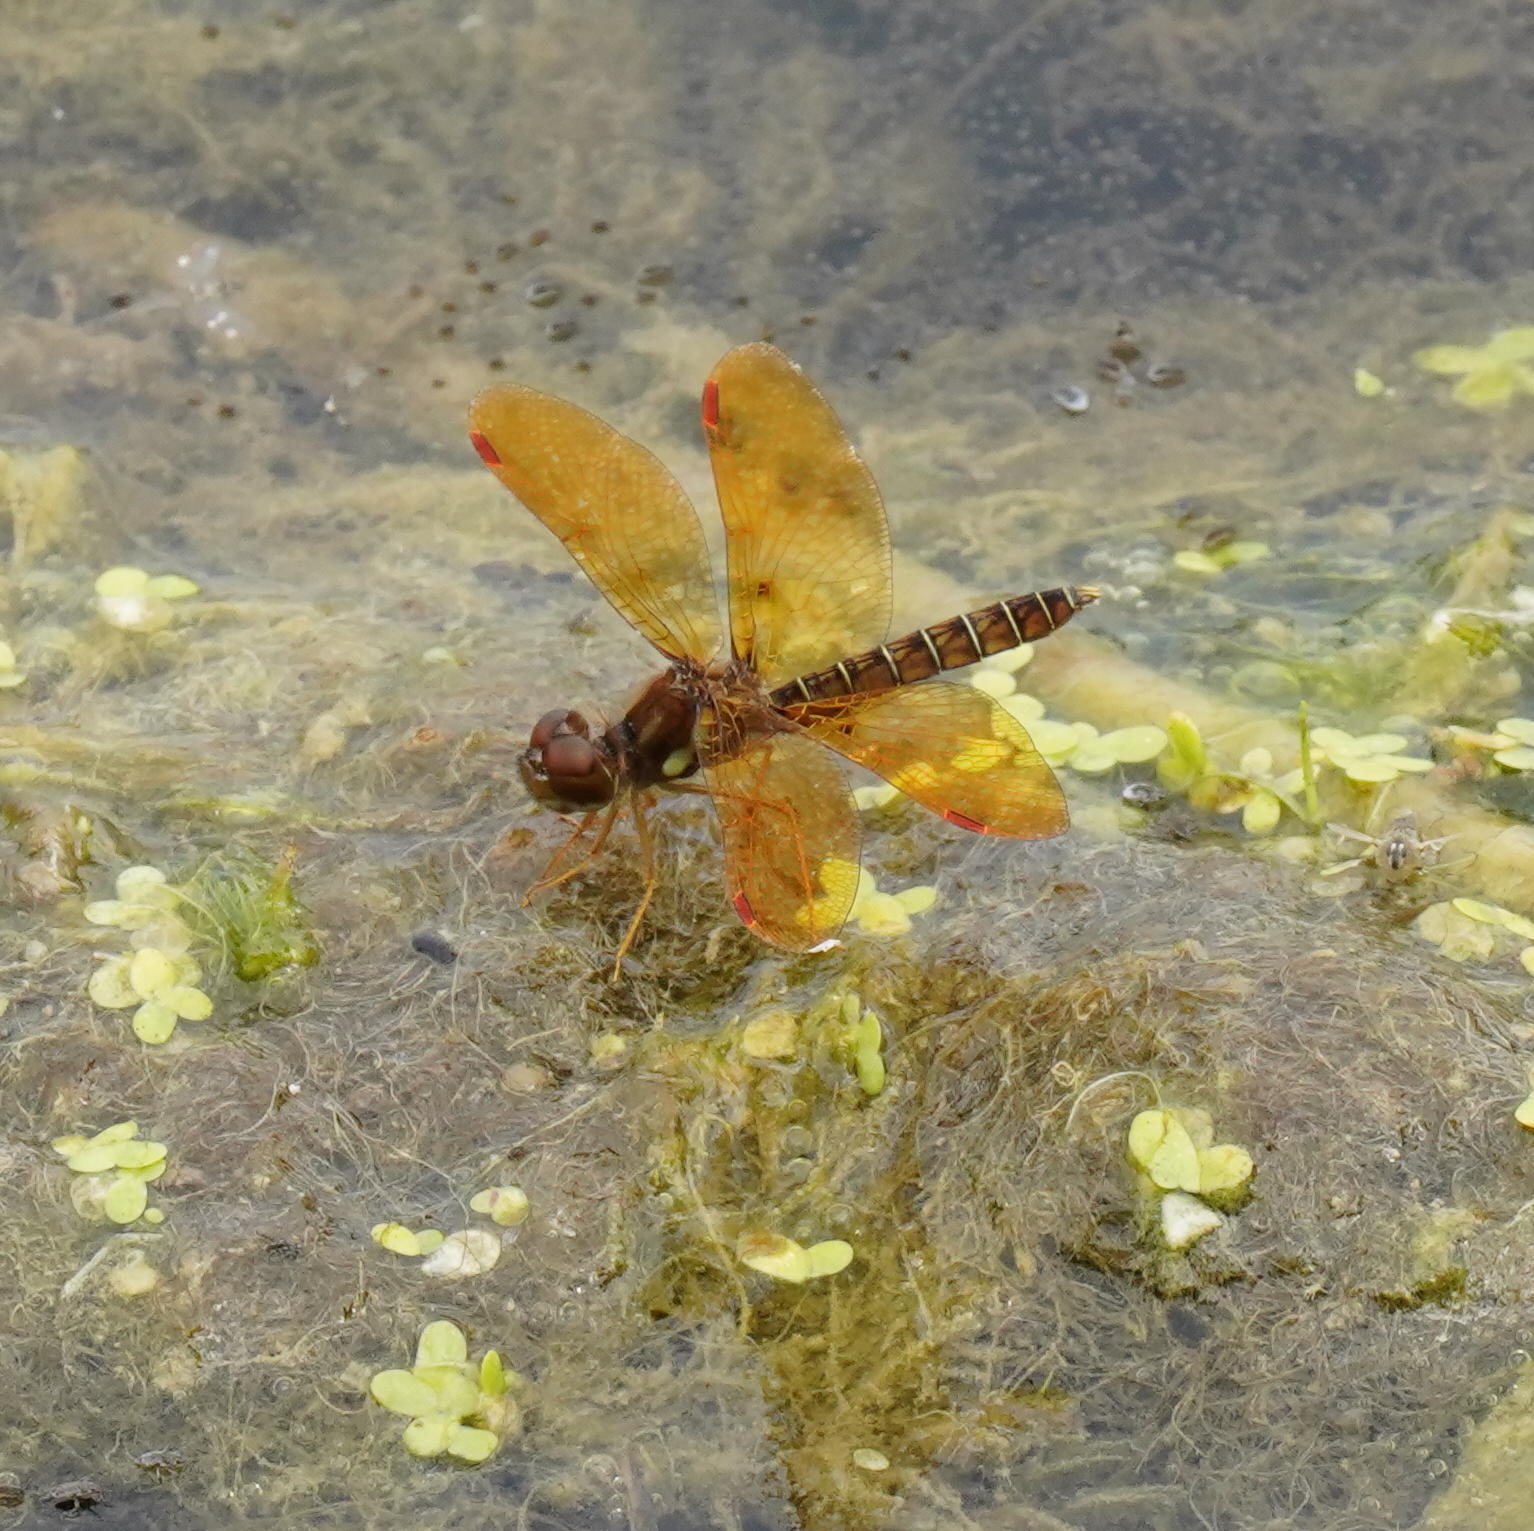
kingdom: Animalia
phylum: Arthropoda
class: Insecta
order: Odonata
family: Libellulidae
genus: Perithemis
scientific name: Perithemis tenera
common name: Eastern amberwing
